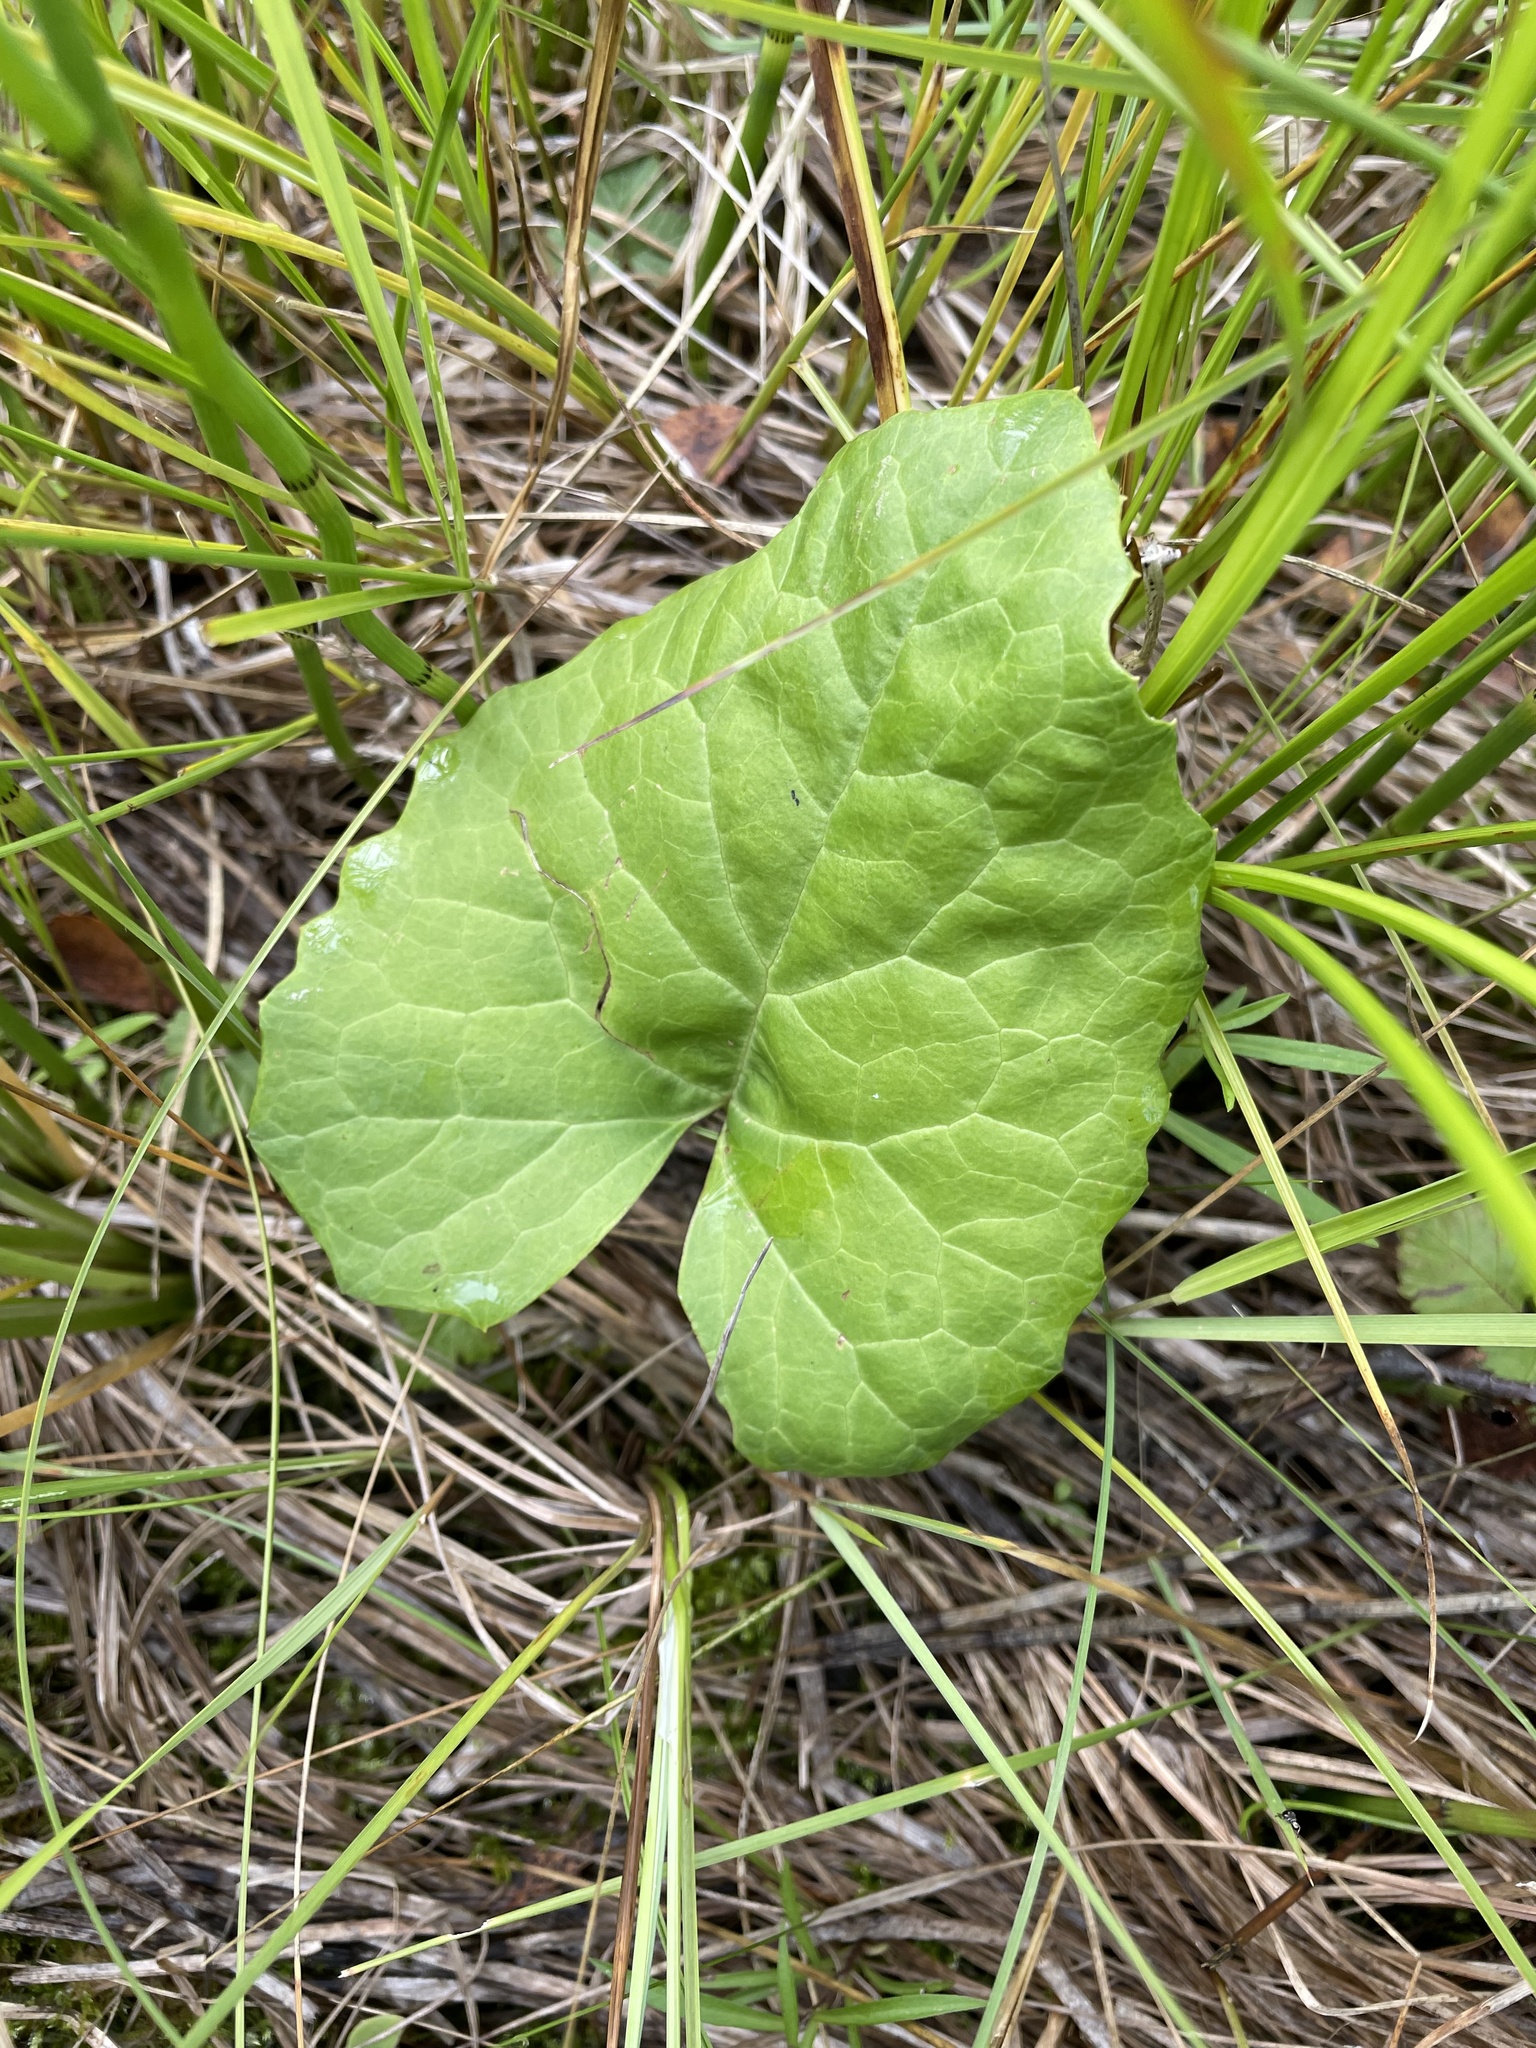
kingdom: Plantae
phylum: Tracheophyta
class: Magnoliopsida
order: Asterales
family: Asteraceae
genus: Petasites
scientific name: Petasites frigidus
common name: Arctic butterbur
